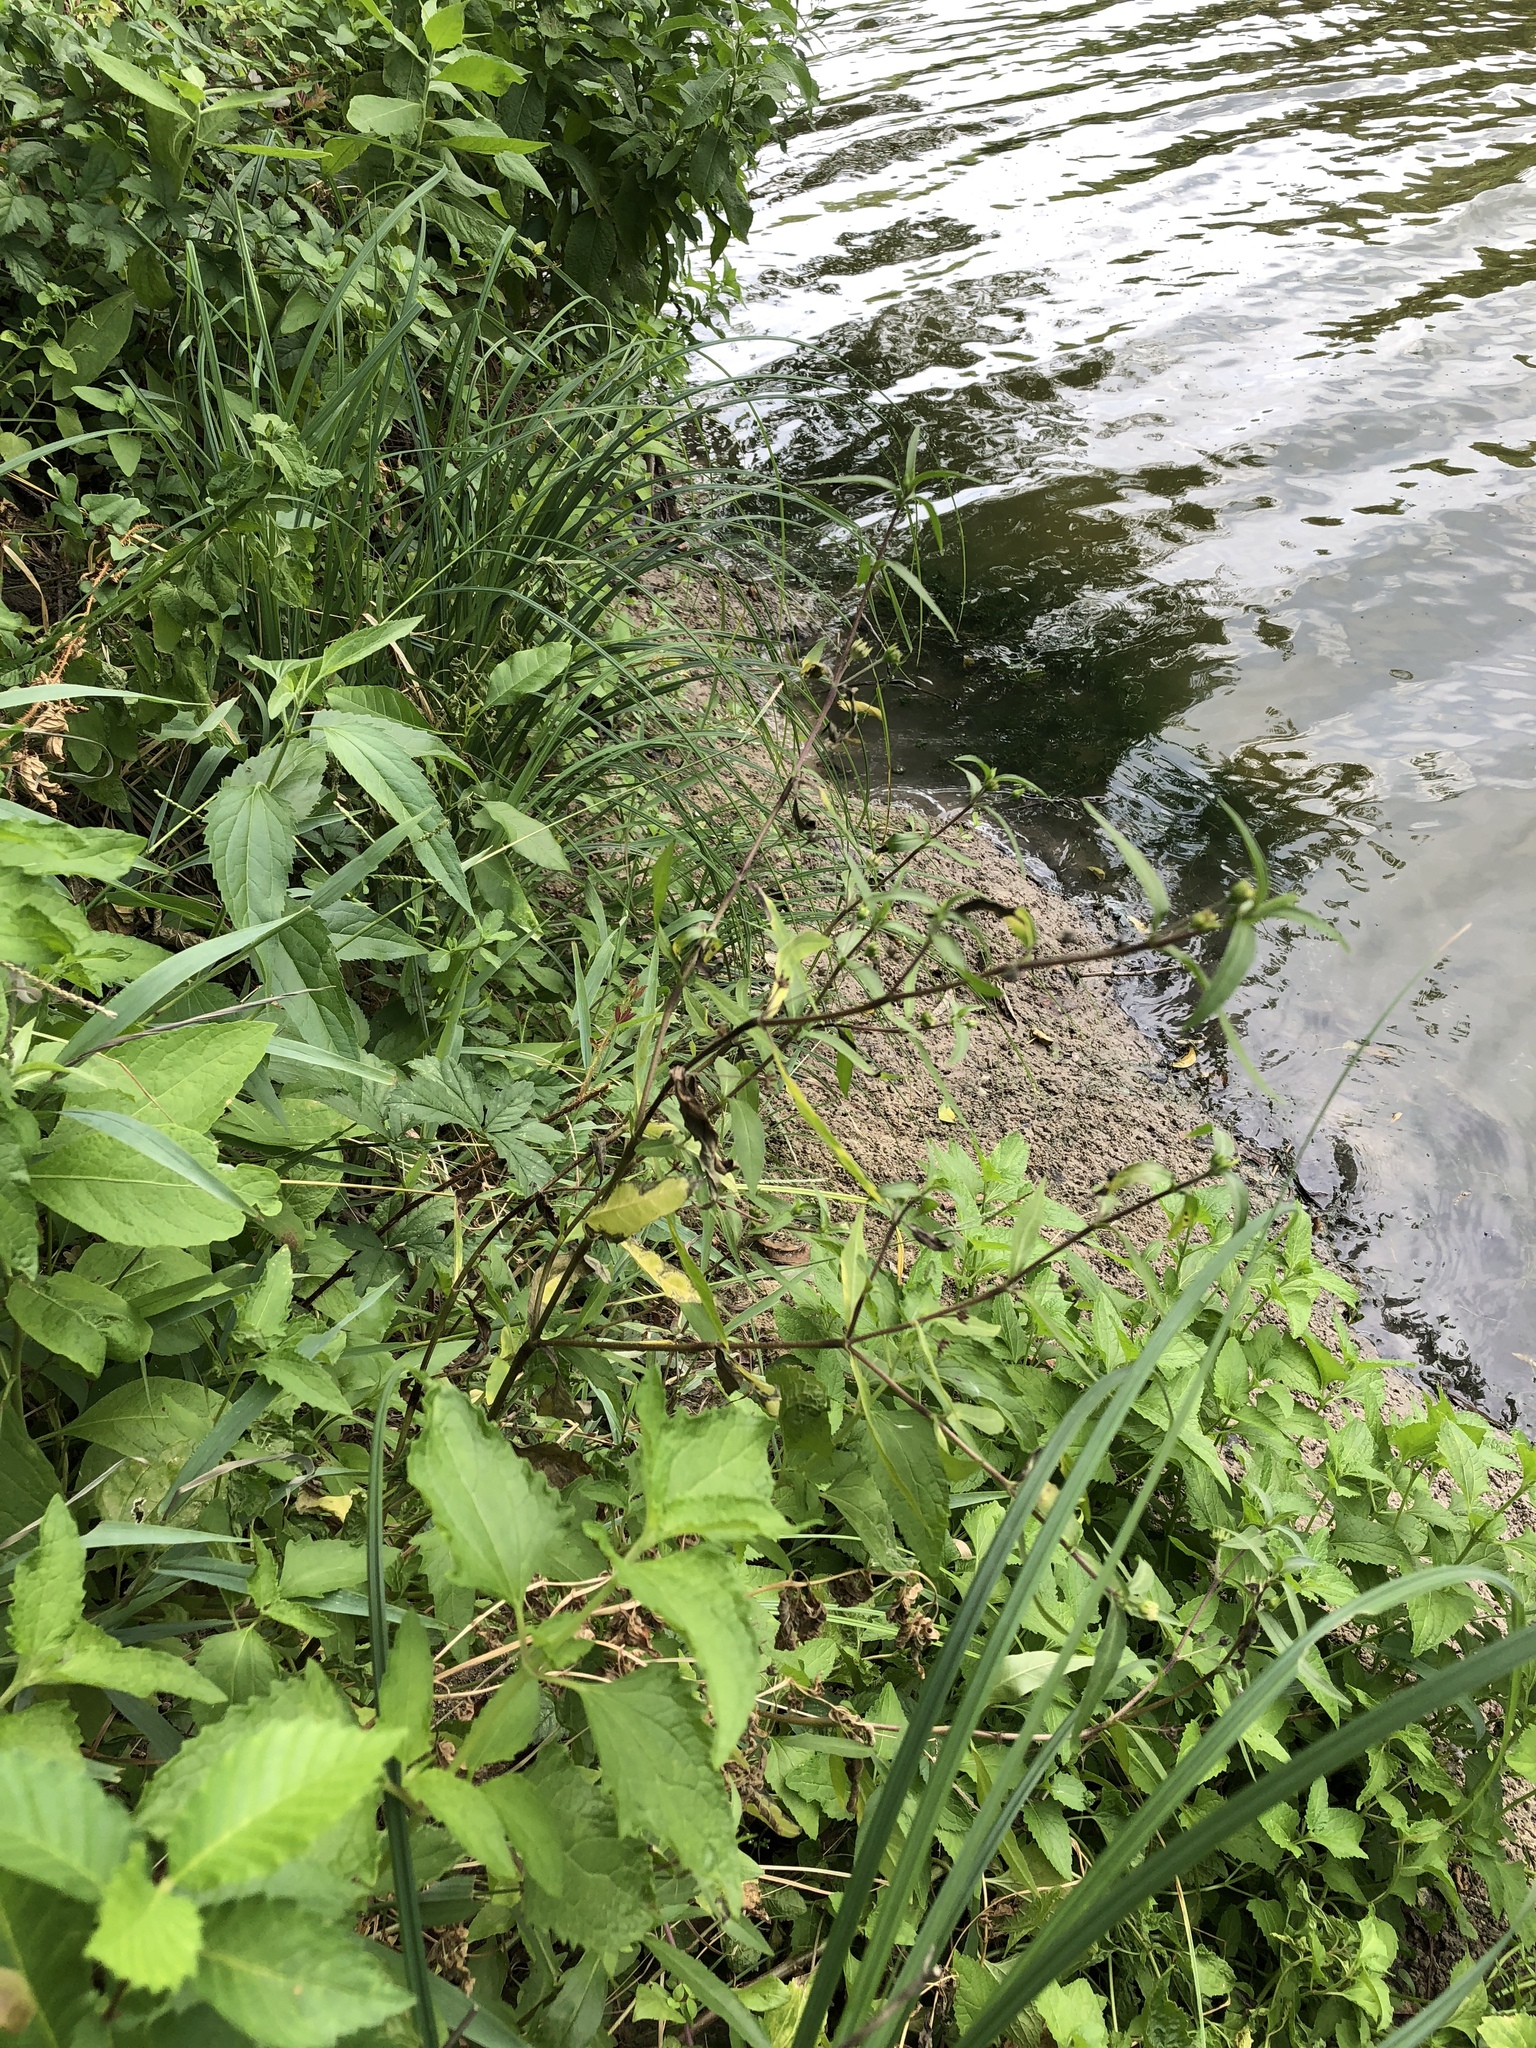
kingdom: Plantae
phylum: Tracheophyta
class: Magnoliopsida
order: Asterales
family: Asteraceae
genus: Eclipta
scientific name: Eclipta prostrata
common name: False daisy
